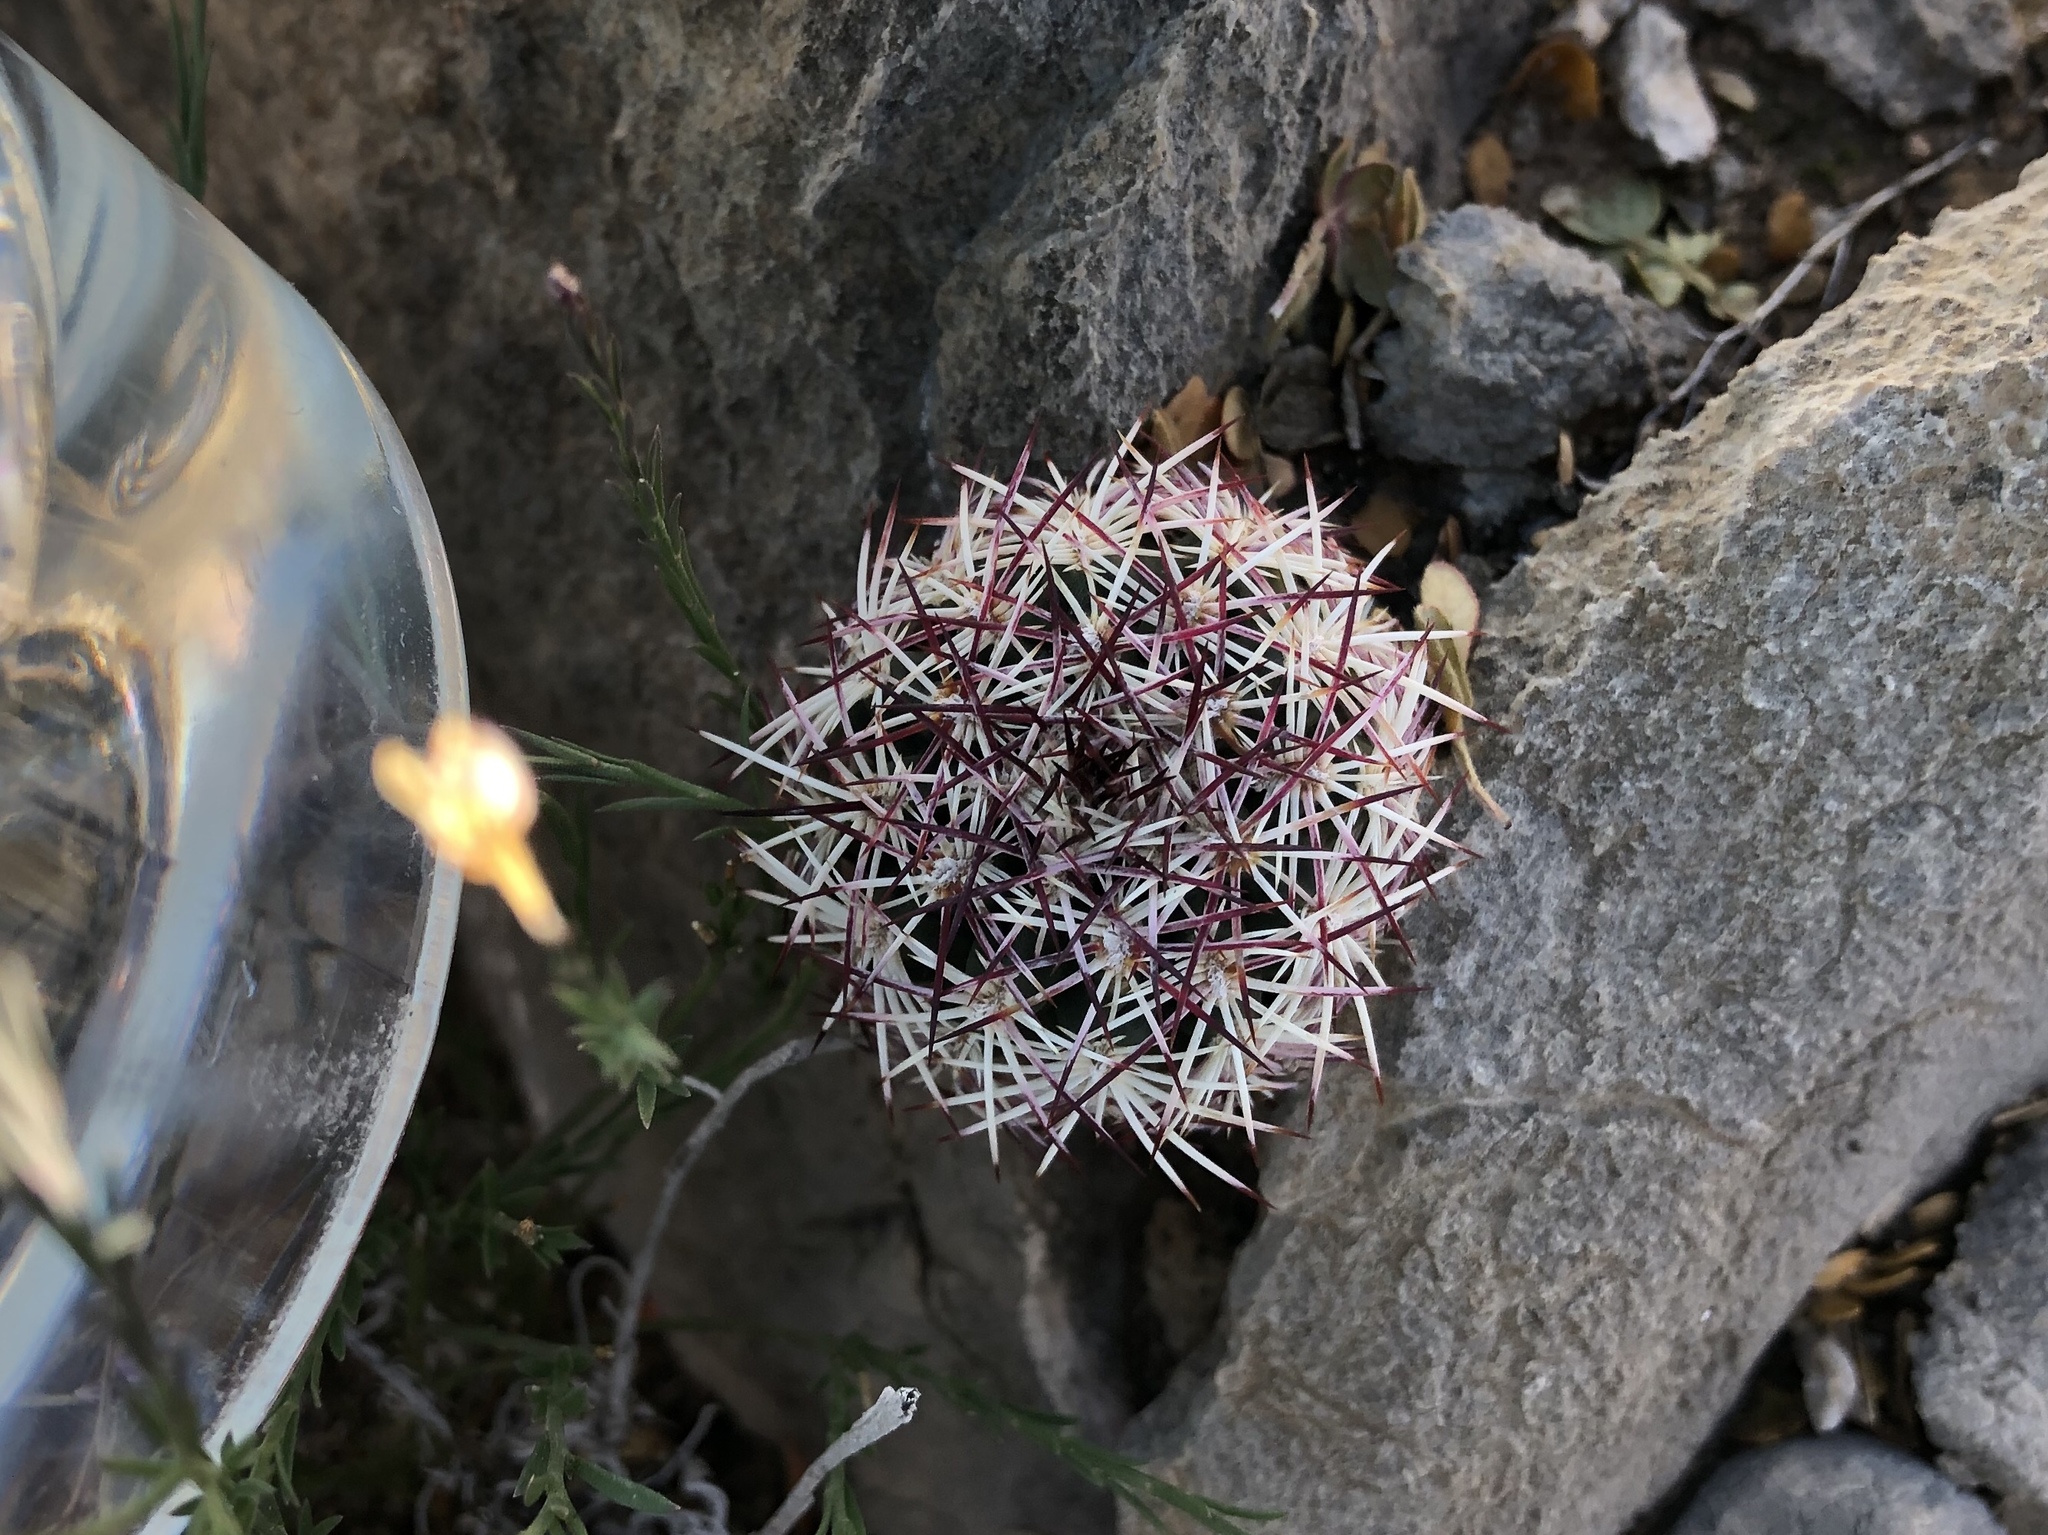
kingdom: Plantae
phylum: Tracheophyta
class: Magnoliopsida
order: Caryophyllales
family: Cactaceae
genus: Echinocereus
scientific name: Echinocereus viridiflorus
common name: Nylon hedgehog cactus
